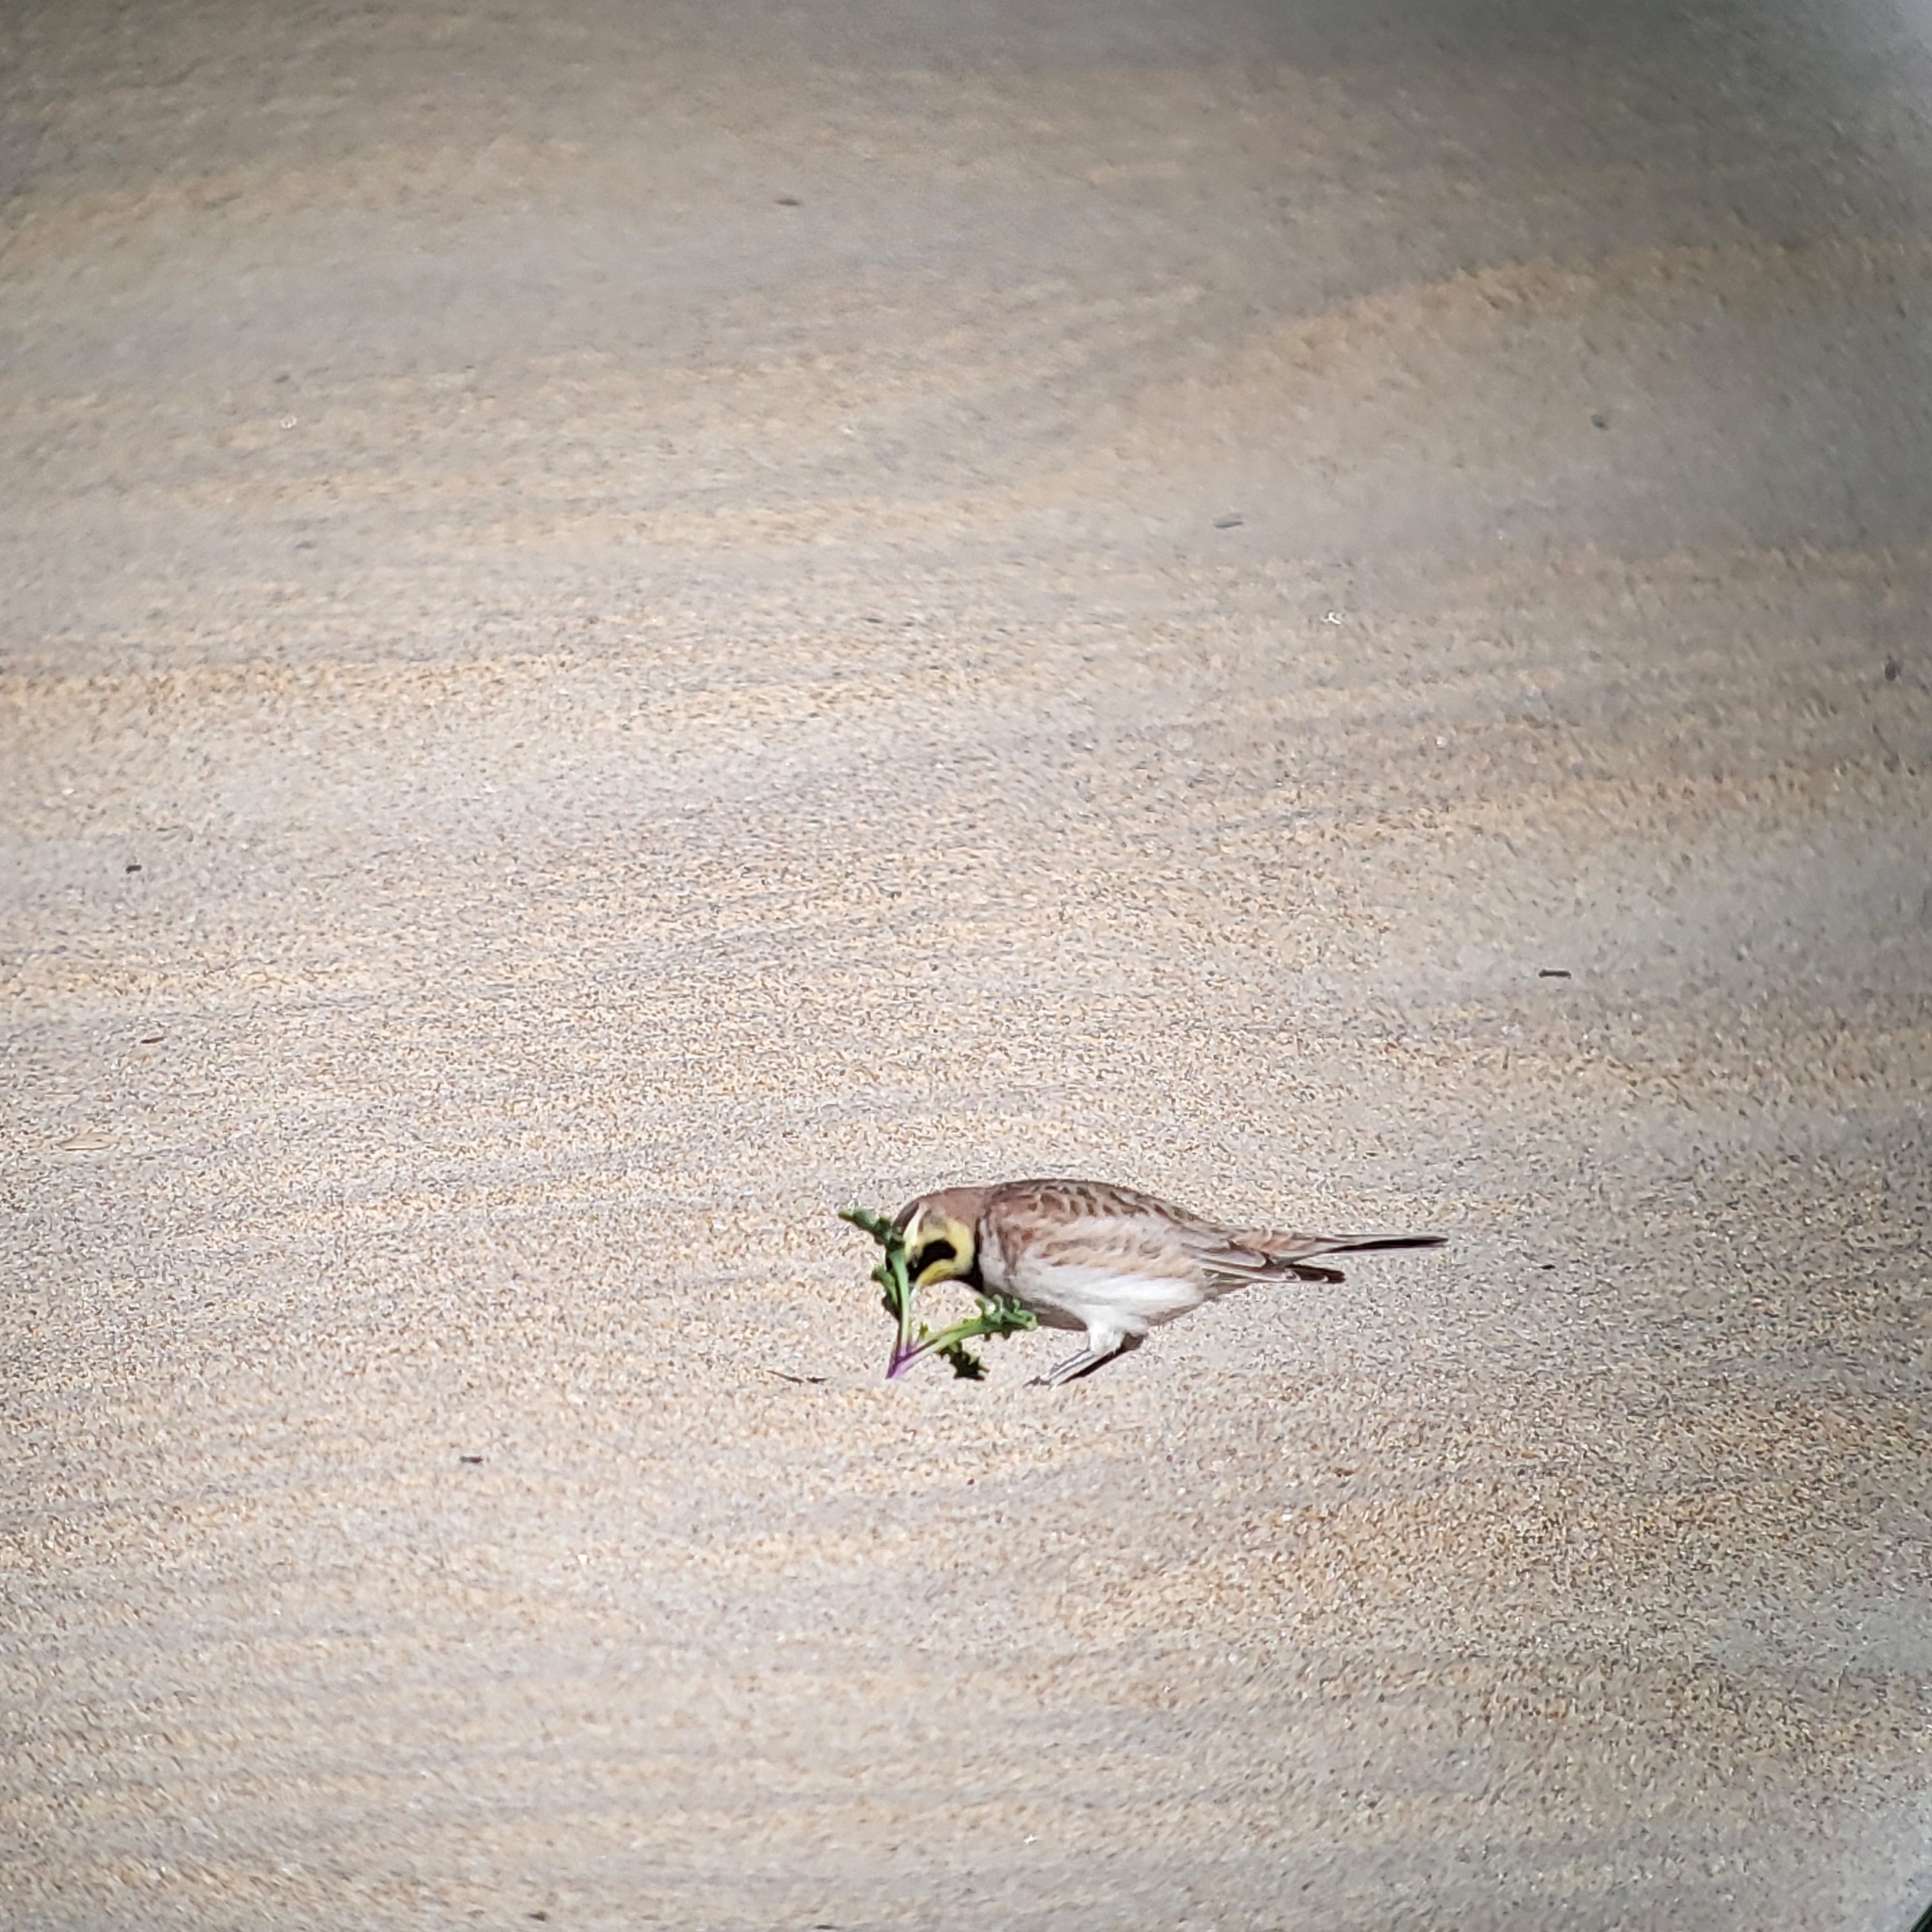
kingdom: Animalia
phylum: Chordata
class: Aves
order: Passeriformes
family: Alaudidae
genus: Eremophila
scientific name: Eremophila alpestris
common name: Horned lark
